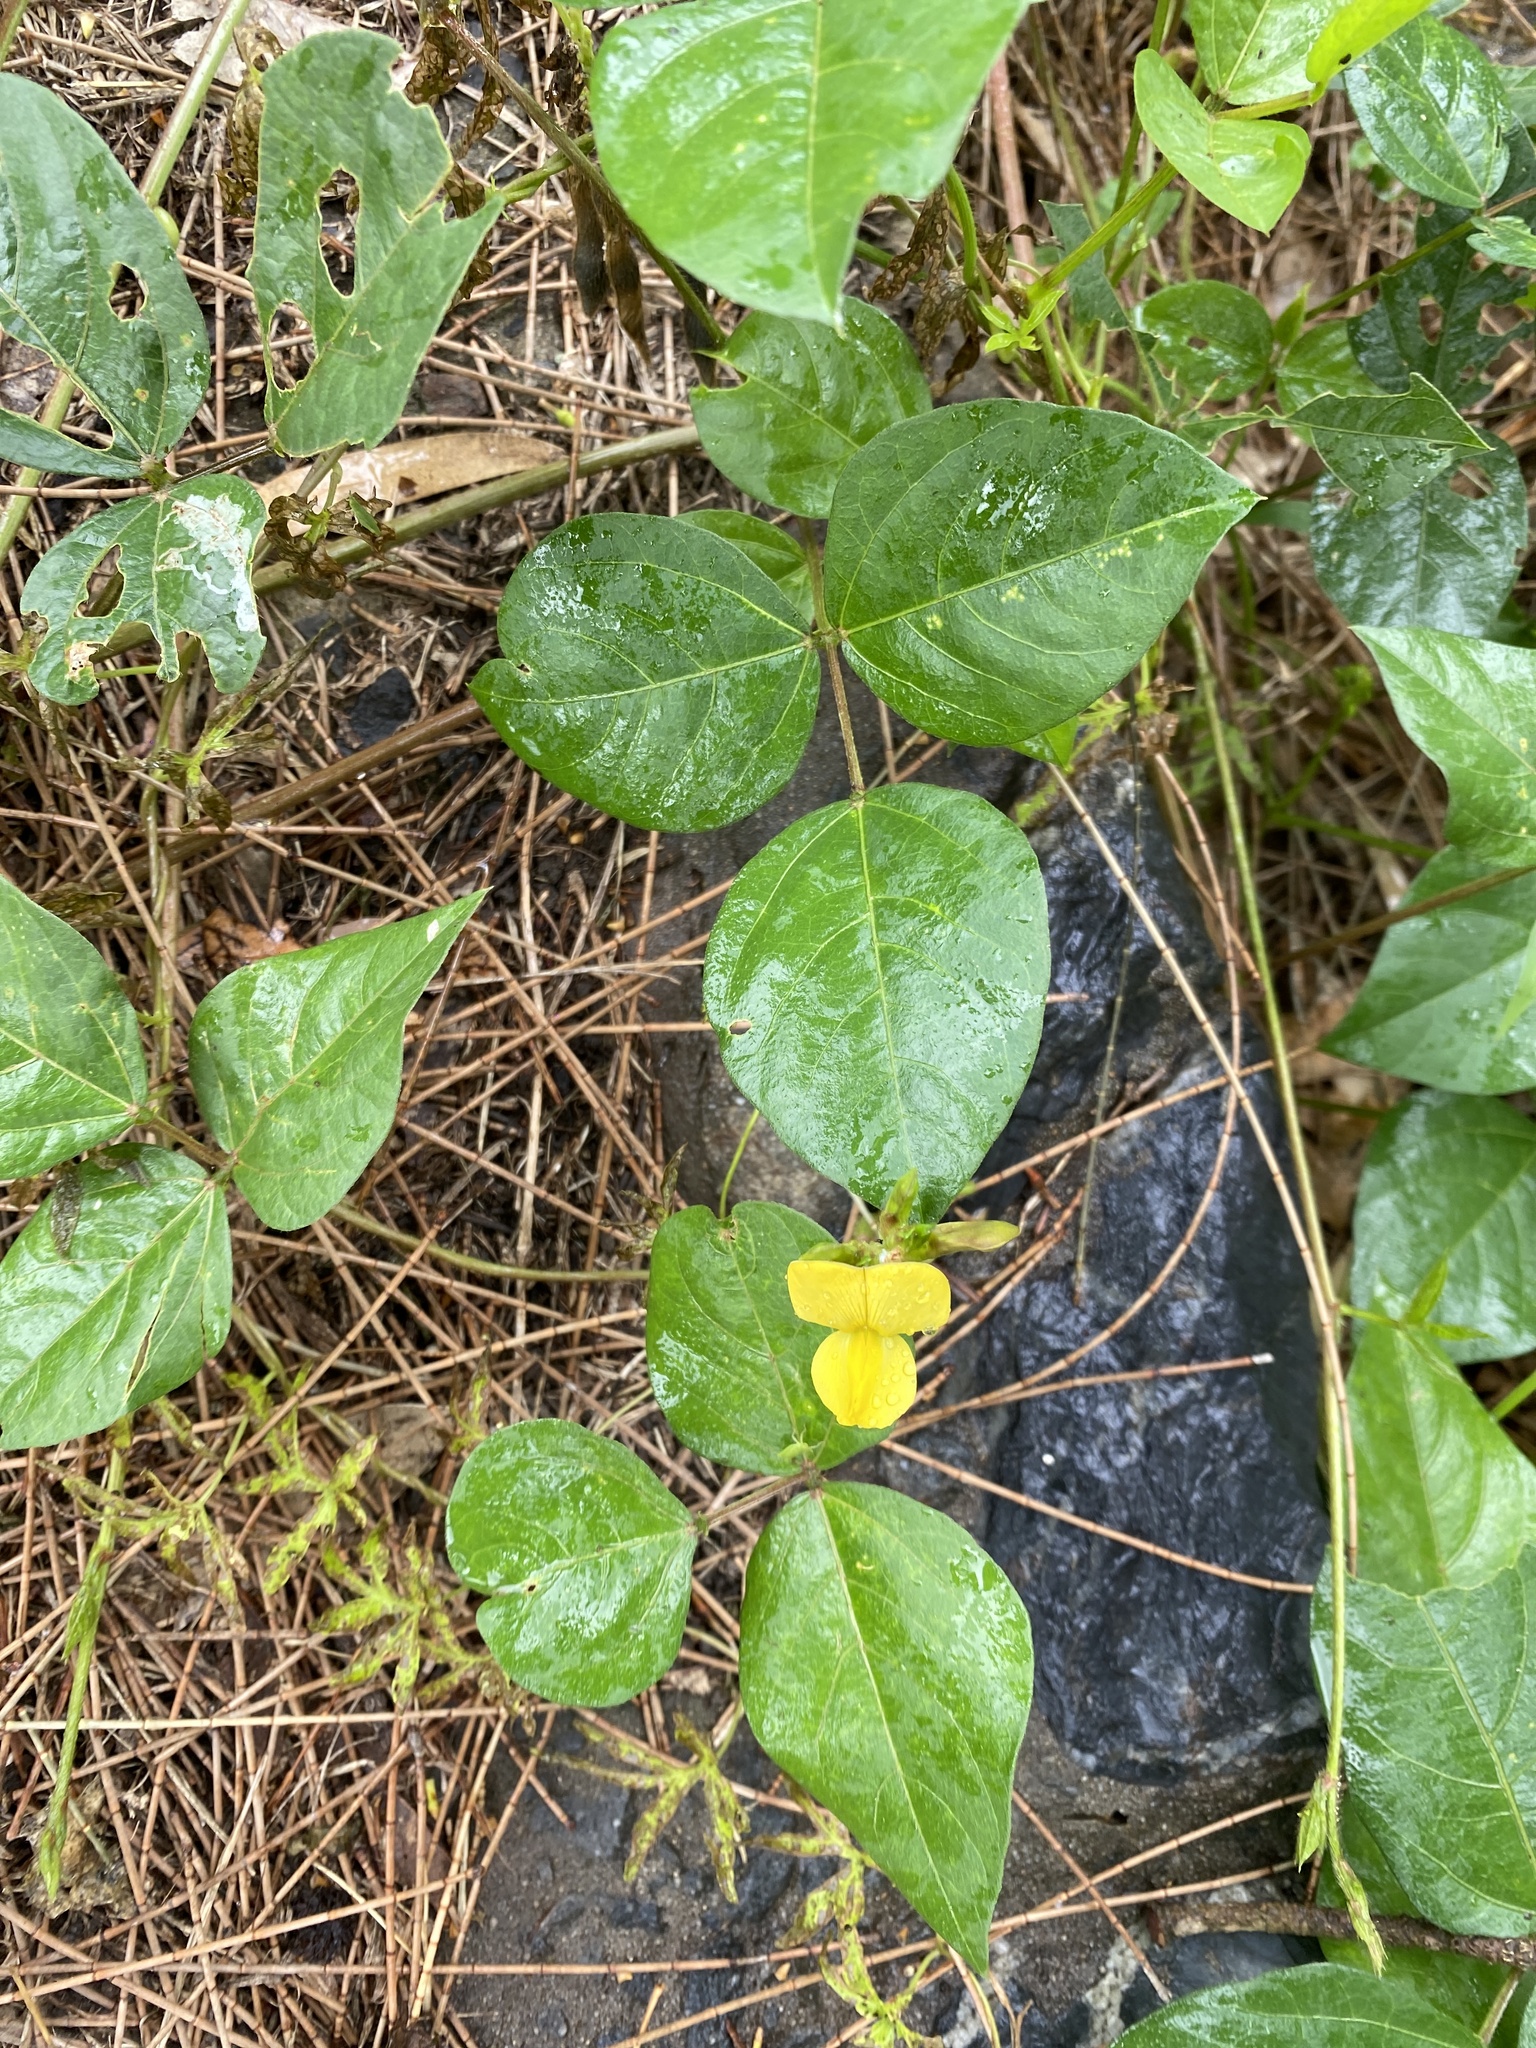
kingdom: Plantae
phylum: Tracheophyta
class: Magnoliopsida
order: Fabales
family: Fabaceae
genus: Vigna
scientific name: Vigna luteola
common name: Hairypod cowpea
